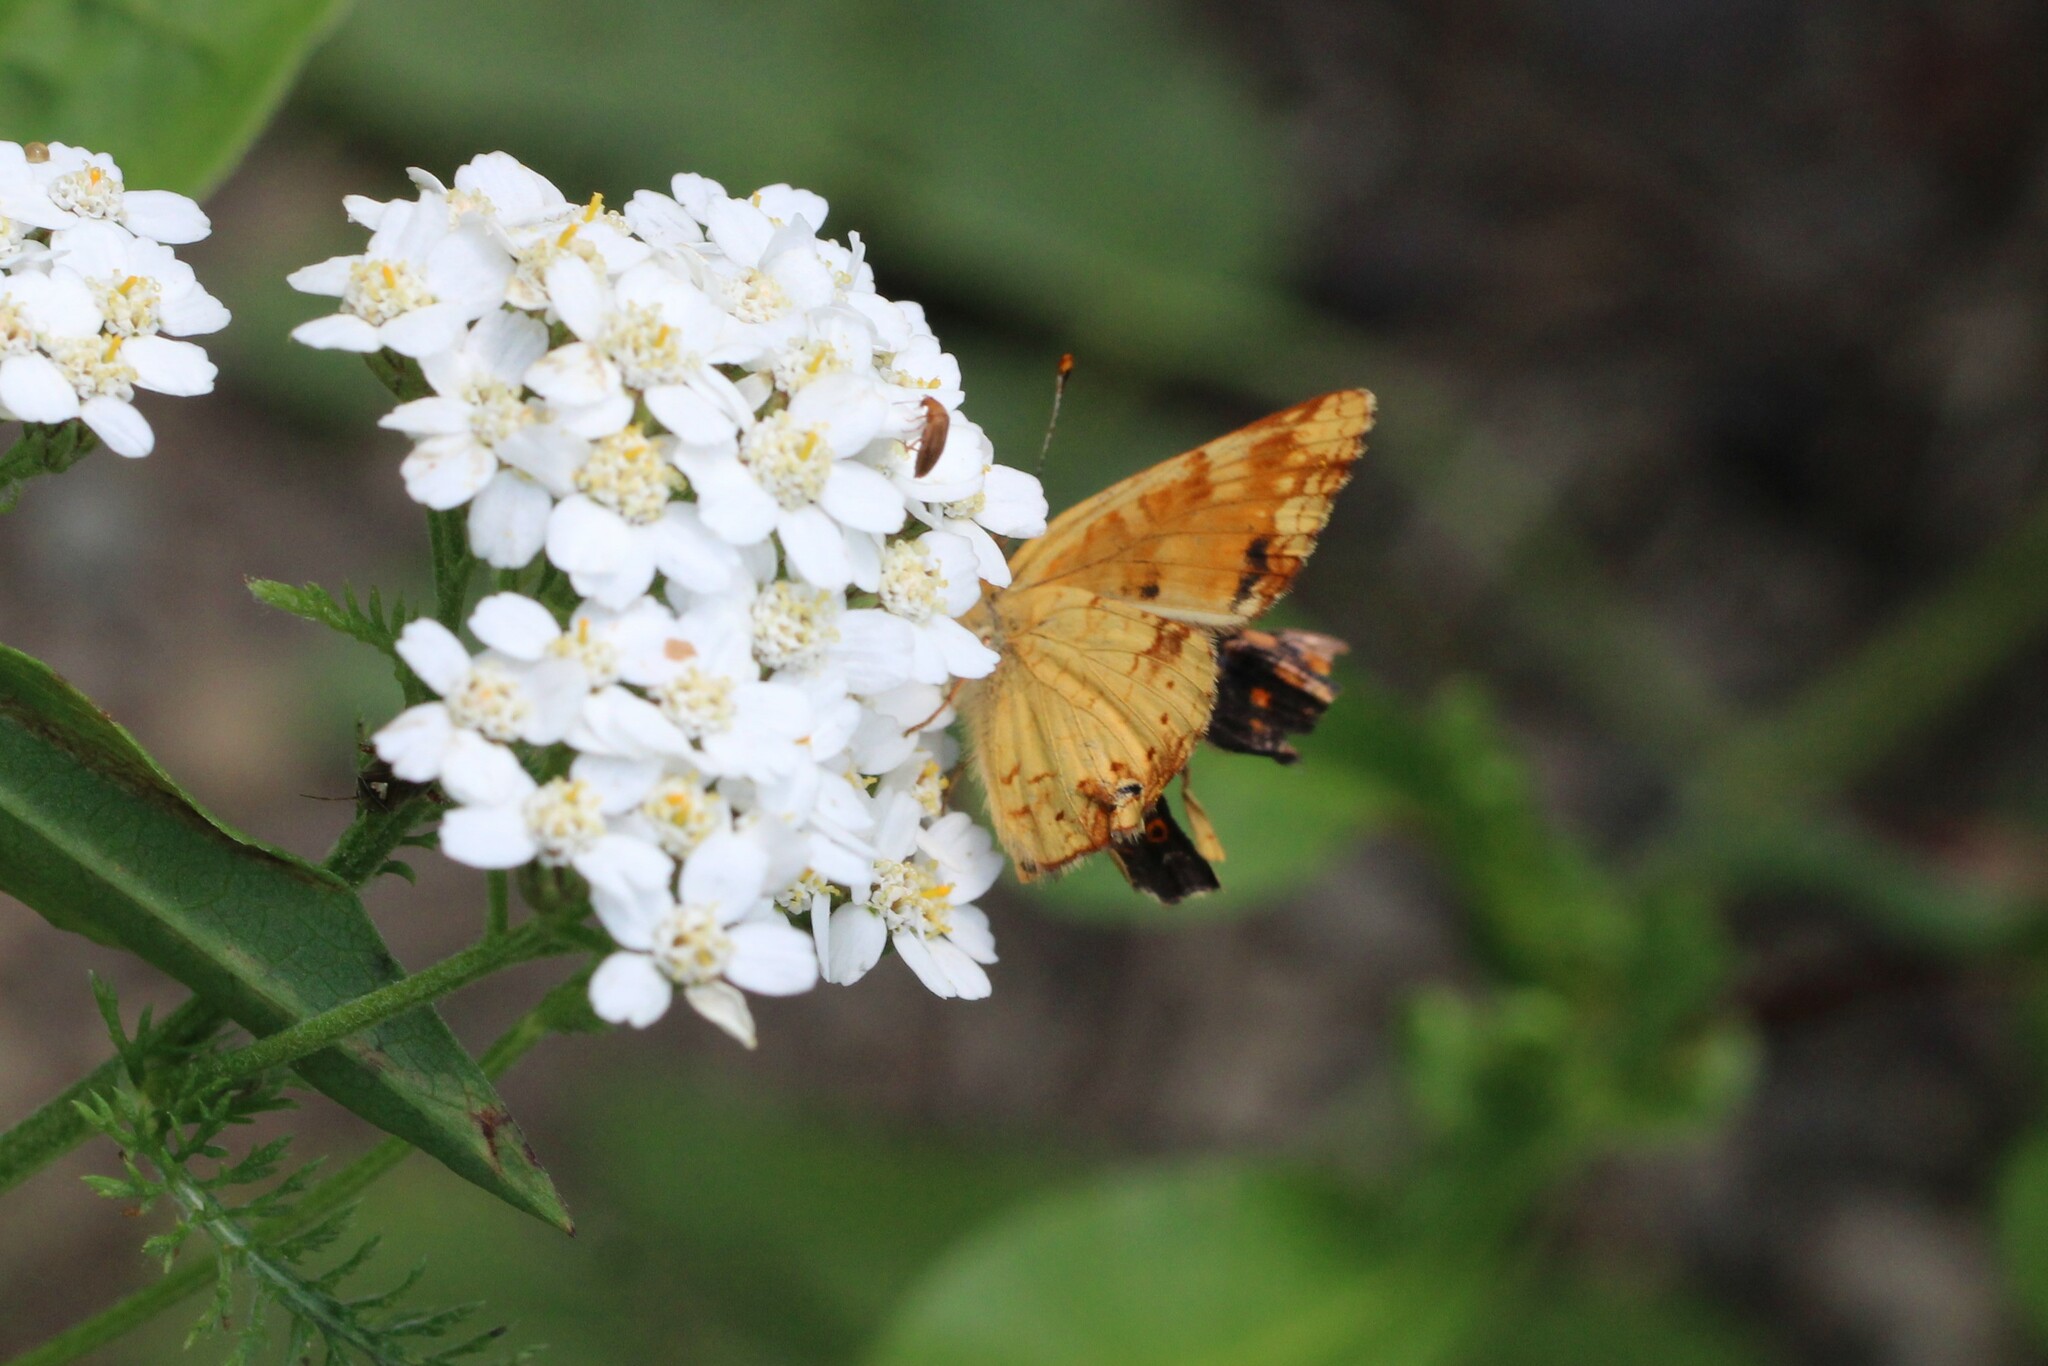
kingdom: Animalia
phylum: Arthropoda
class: Insecta
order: Lepidoptera
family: Nymphalidae
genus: Phyciodes
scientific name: Phyciodes tharos
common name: Pearl crescent
